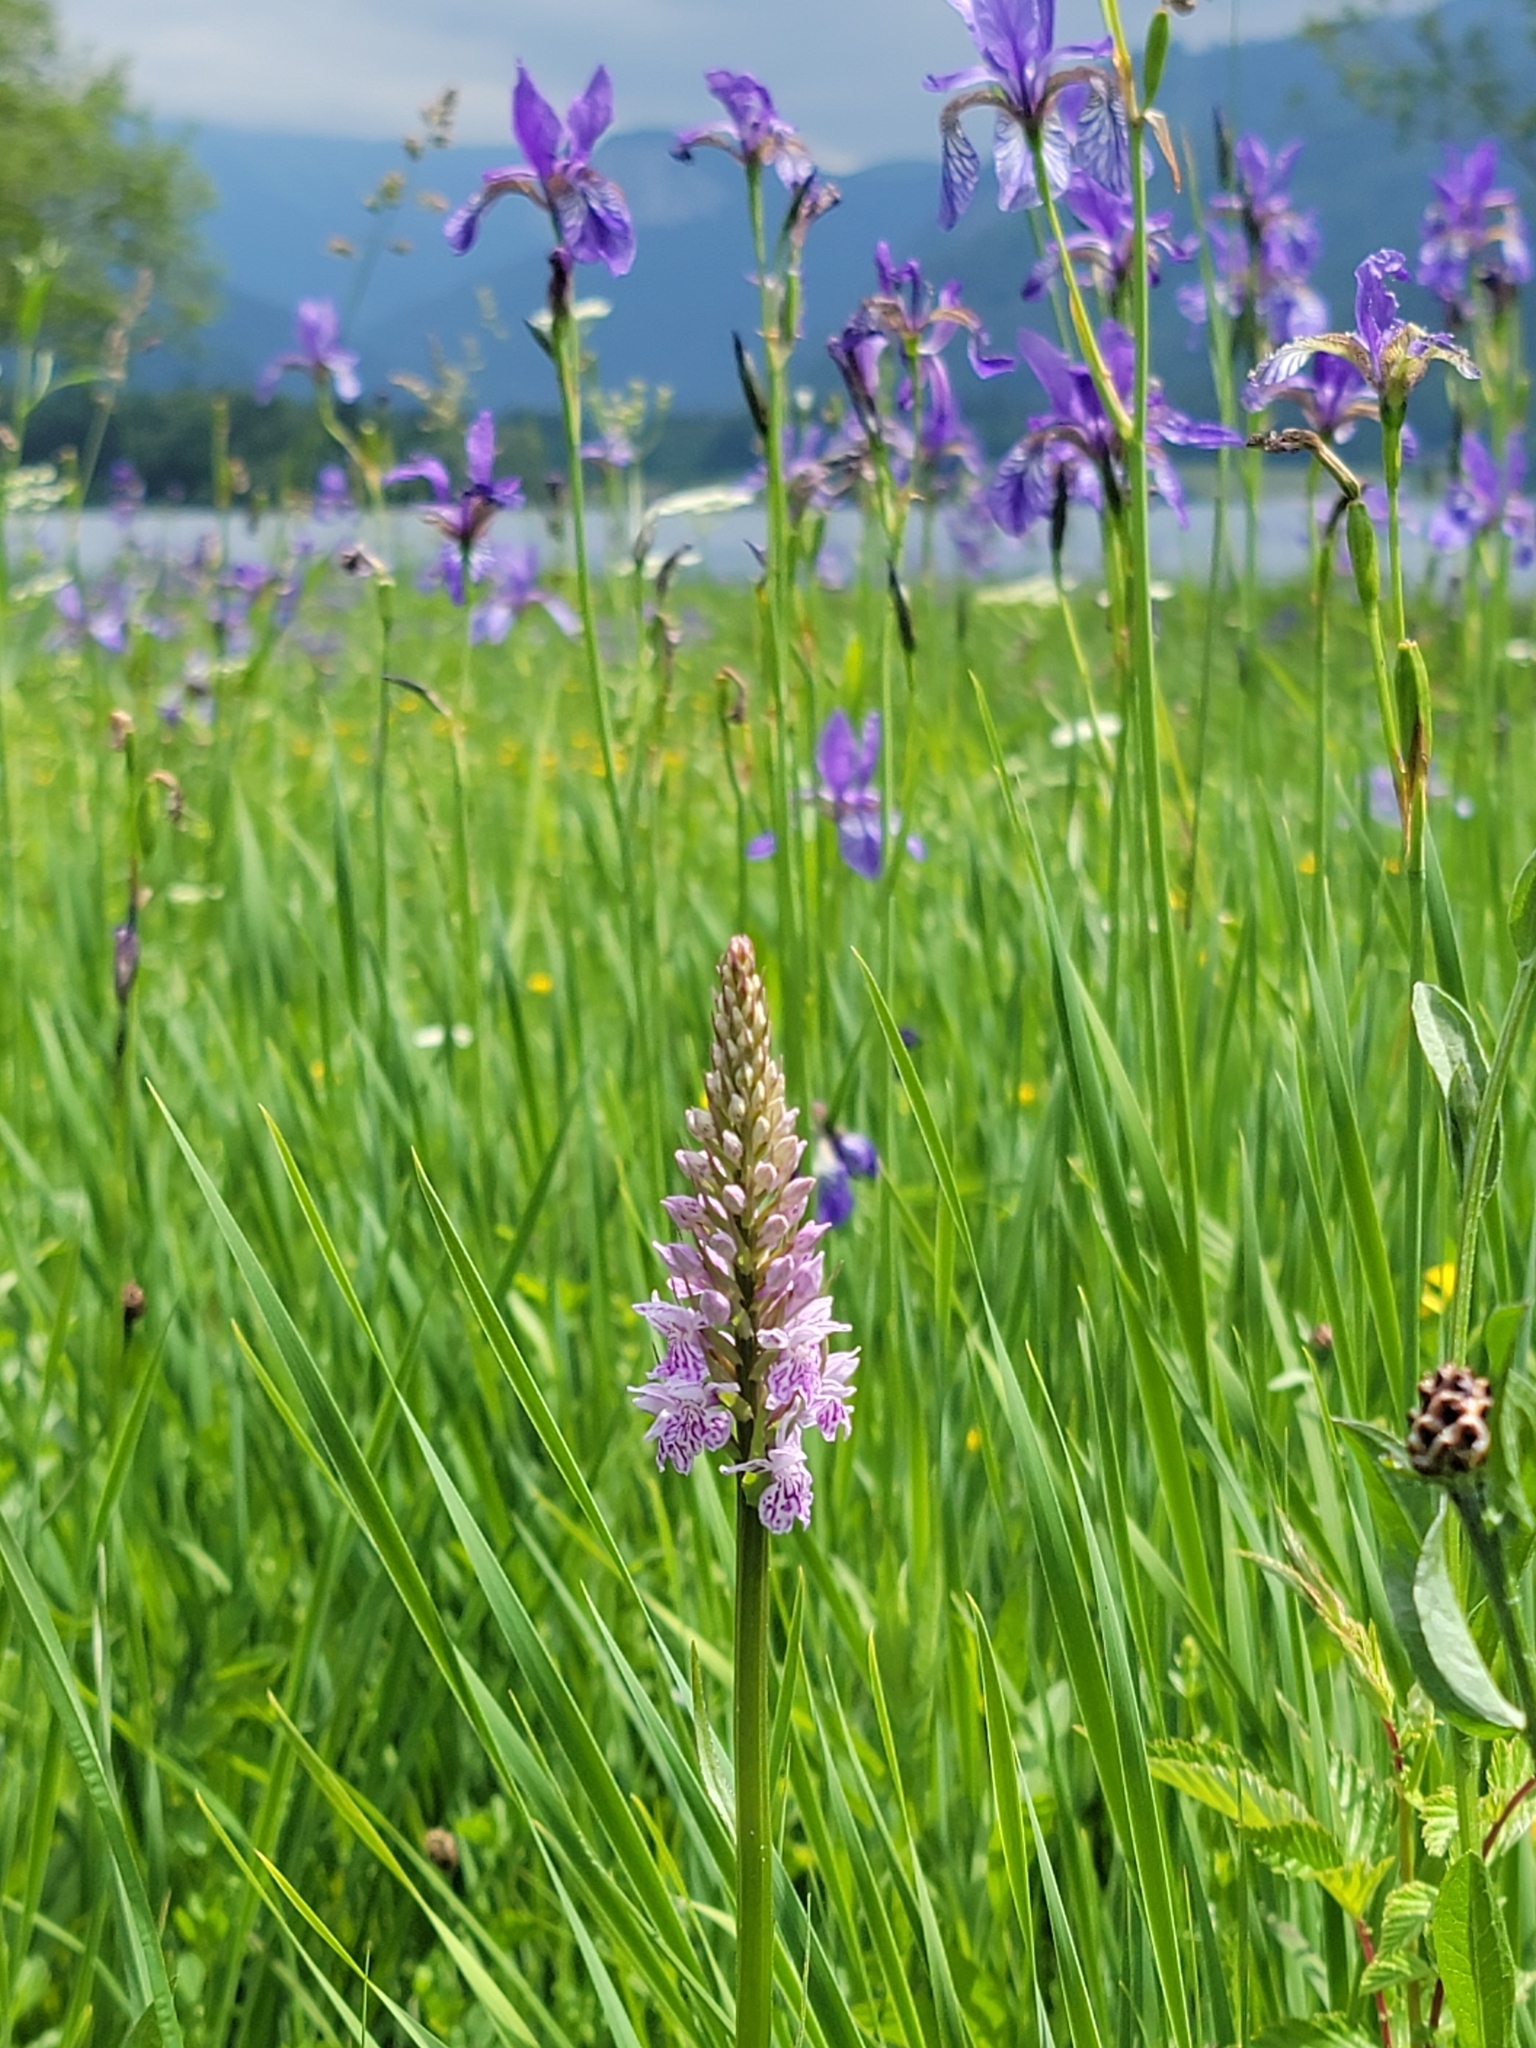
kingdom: Plantae
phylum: Tracheophyta
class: Liliopsida
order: Asparagales
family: Orchidaceae
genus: Dactylorhiza
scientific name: Dactylorhiza maculata
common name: Heath spotted-orchid
